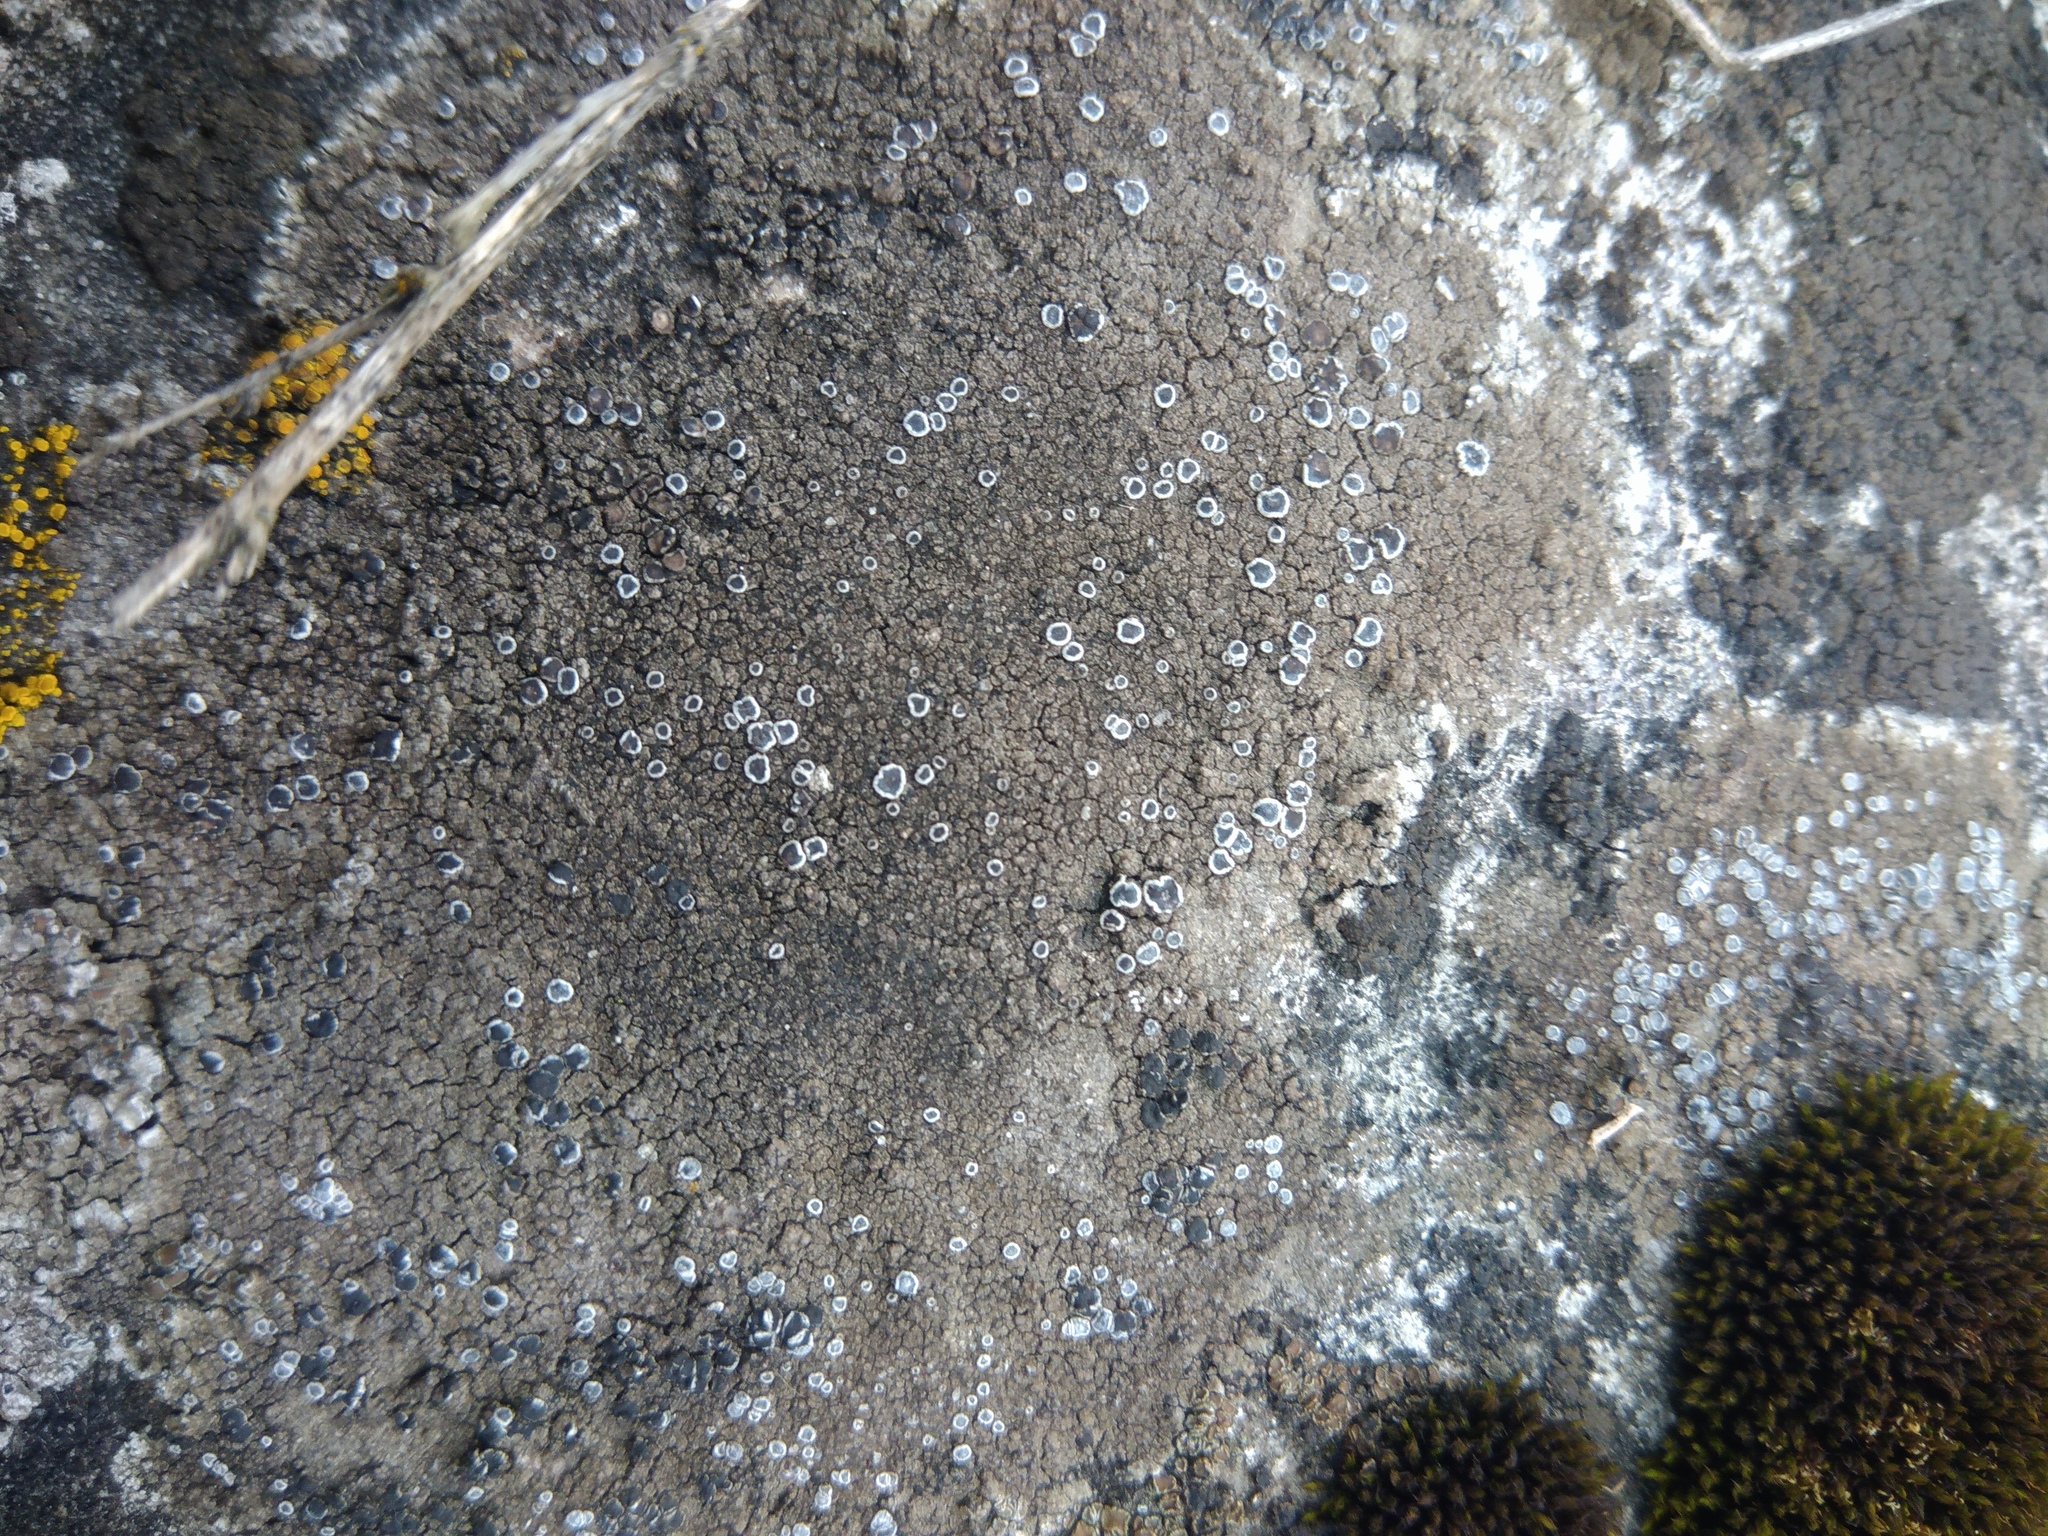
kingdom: Fungi
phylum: Ascomycota
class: Lecanoromycetes
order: Teloschistales
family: Teloschistaceae
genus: Pyrenodesmia
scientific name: Pyrenodesmia variabilis
